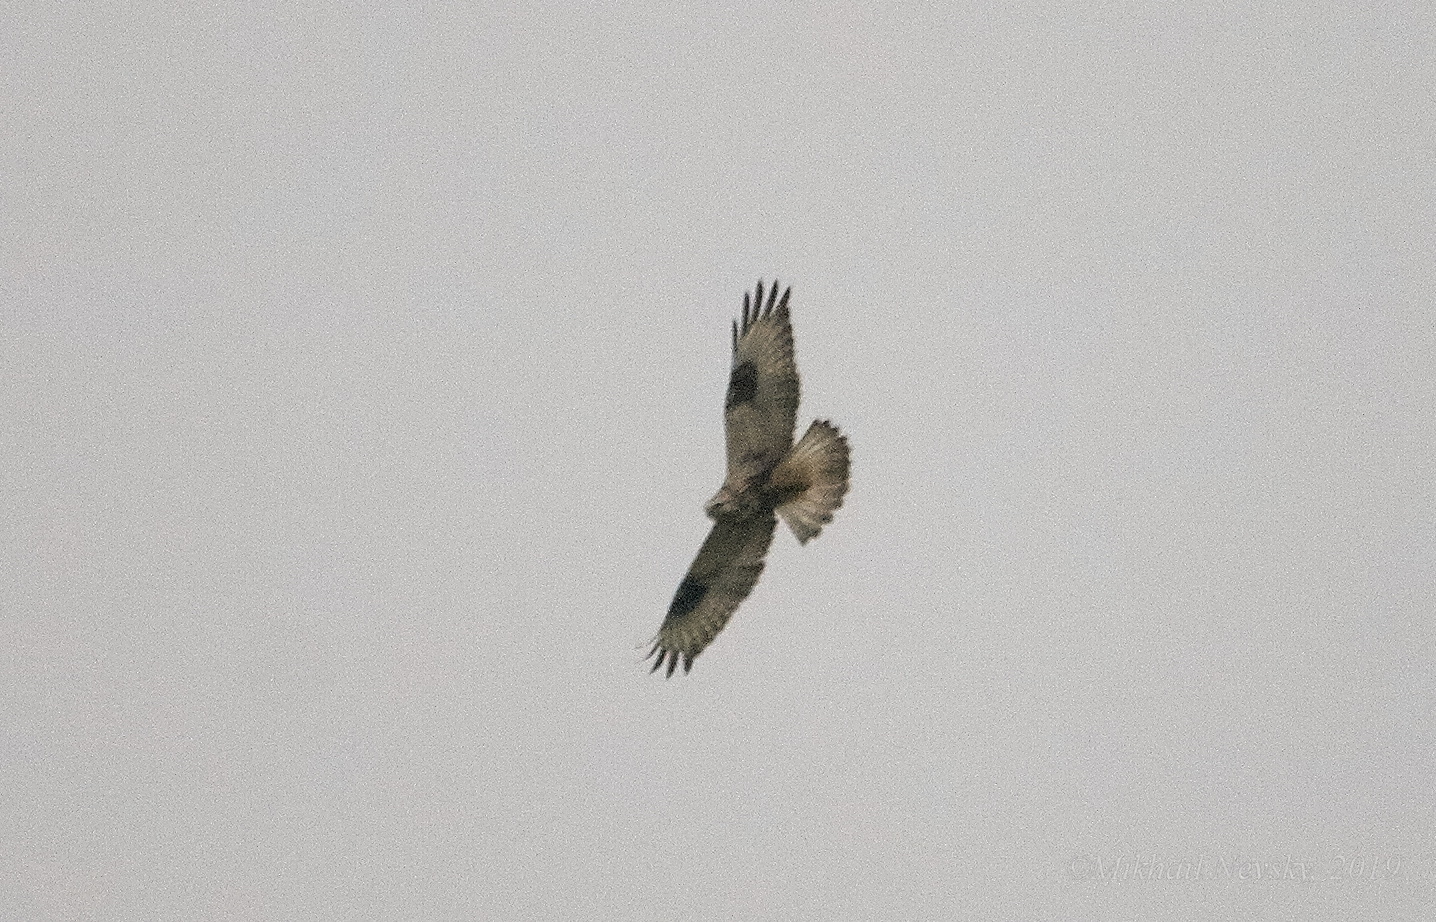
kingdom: Animalia
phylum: Chordata
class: Aves
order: Accipitriformes
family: Accipitridae
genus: Buteo
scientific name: Buteo lagopus
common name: Rough-legged buzzard
